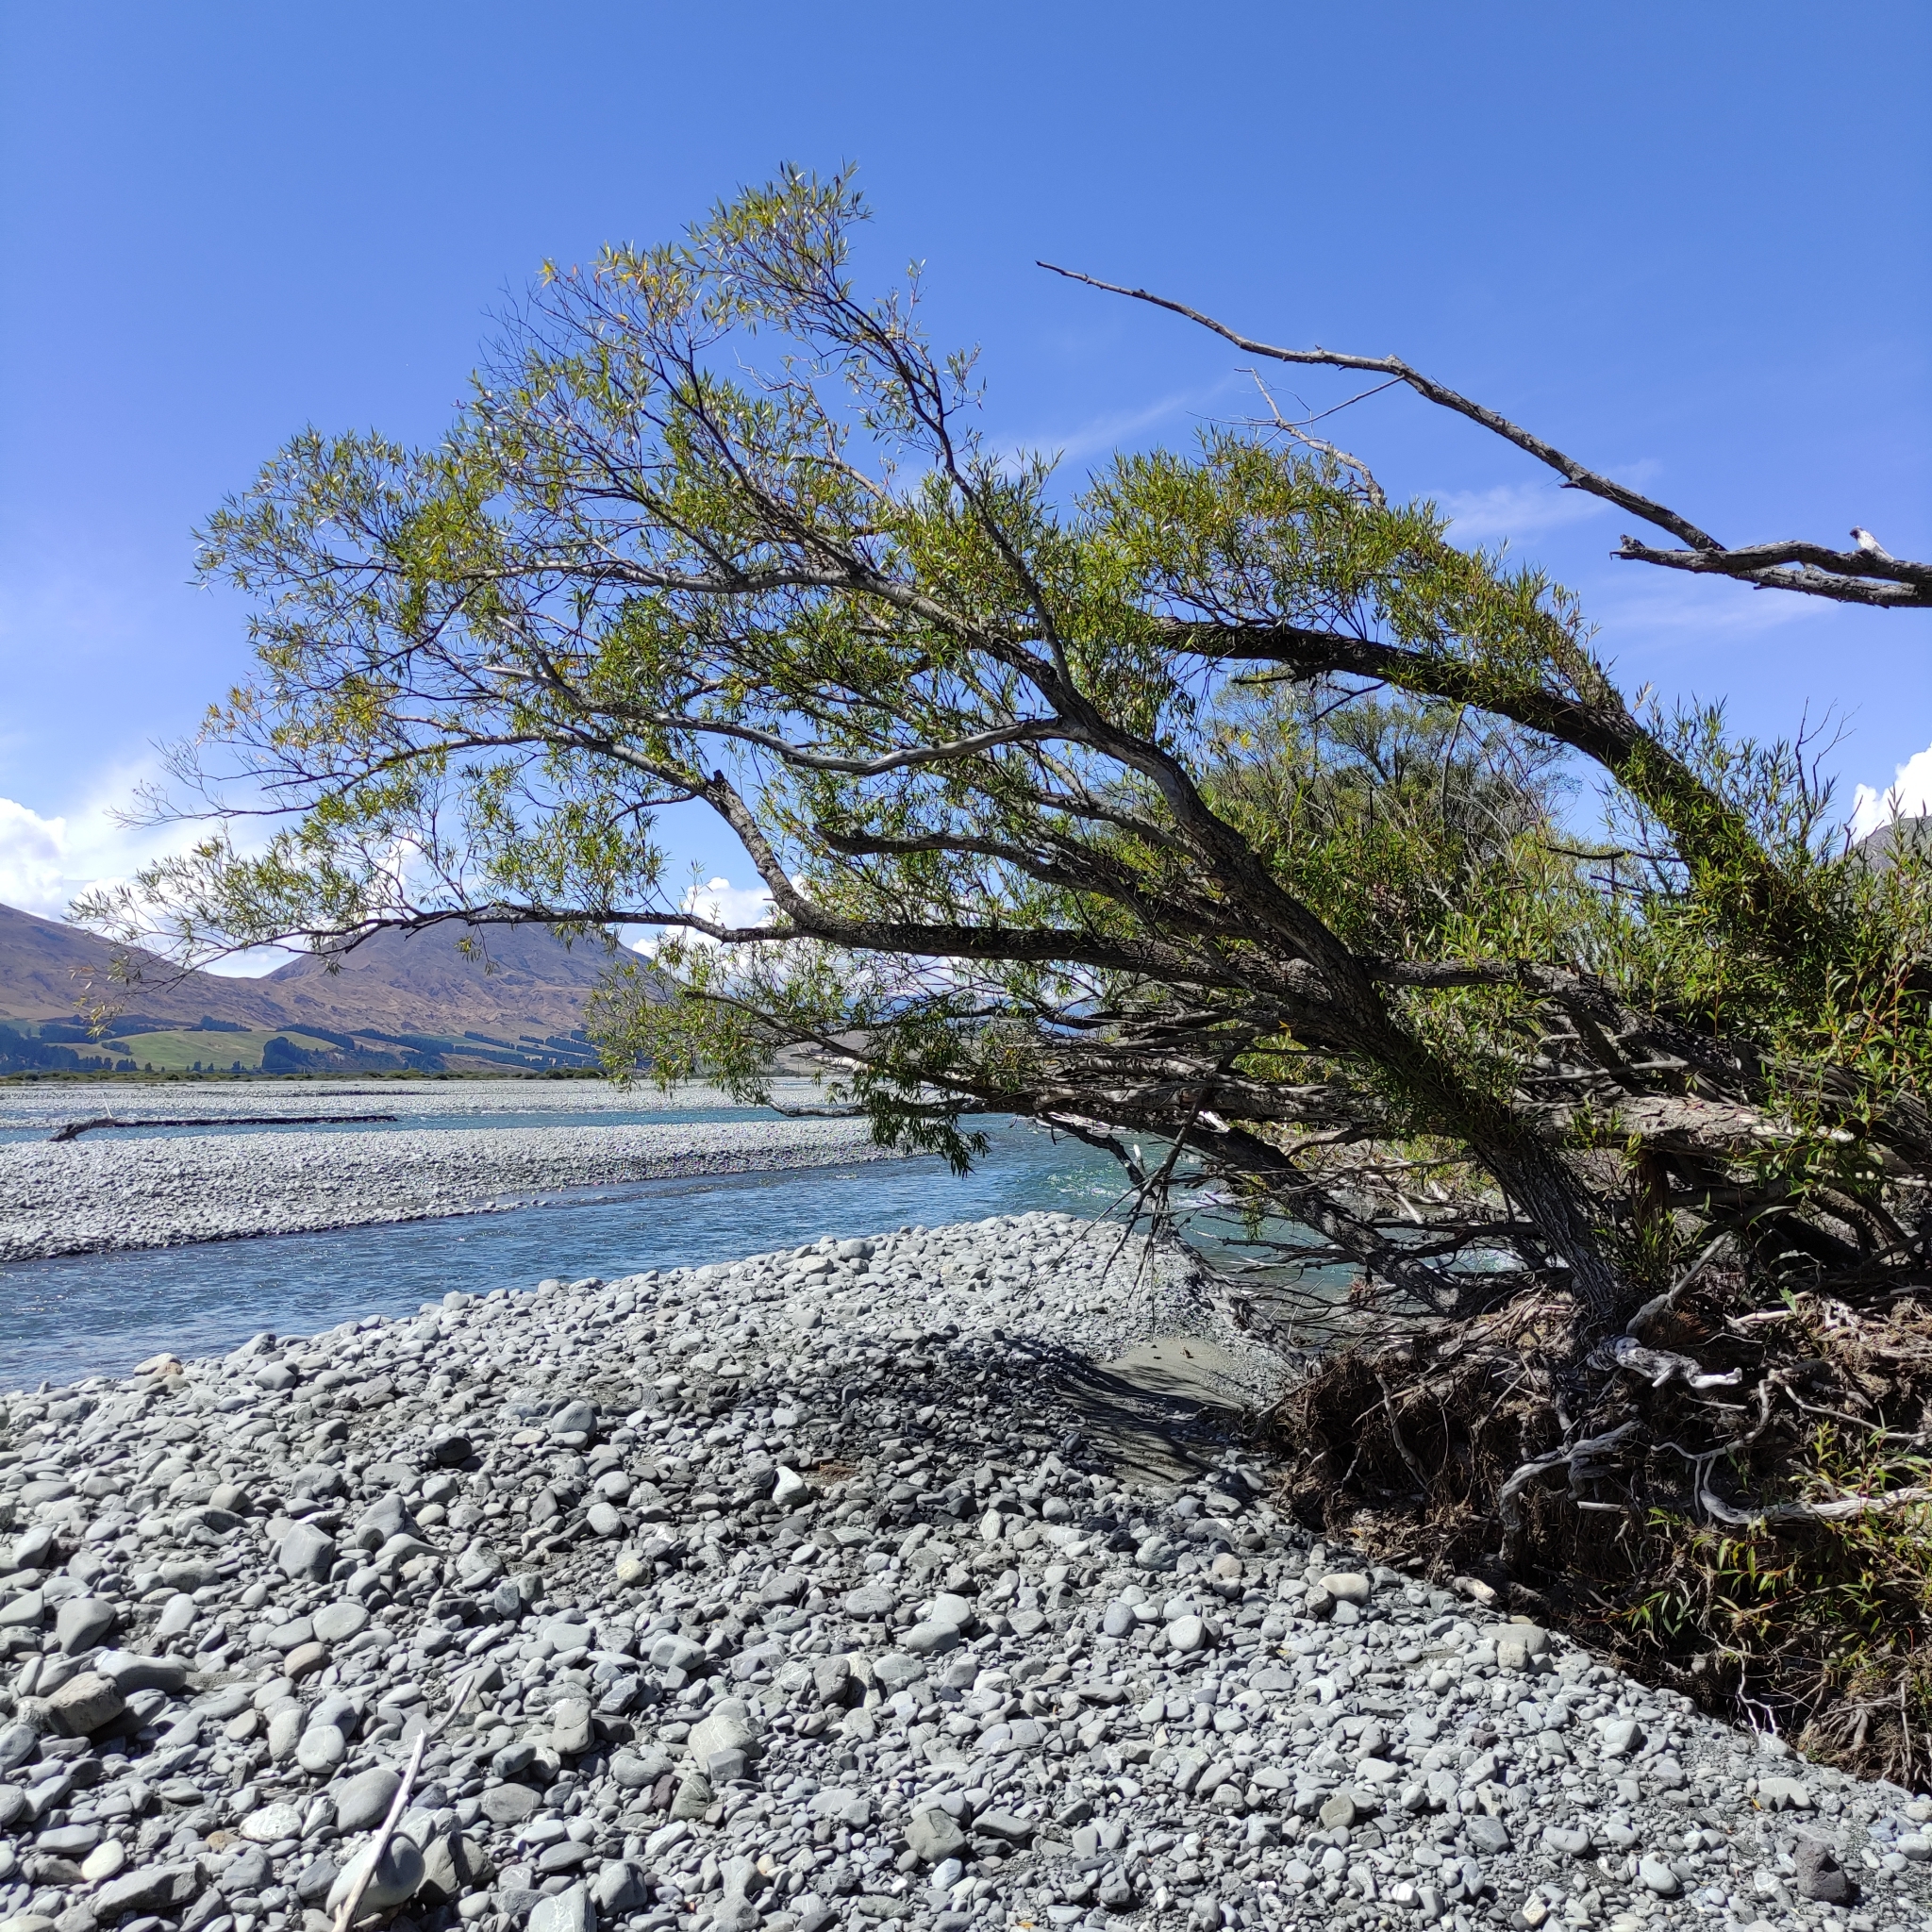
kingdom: Plantae
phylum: Tracheophyta
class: Magnoliopsida
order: Malpighiales
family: Salicaceae
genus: Salix
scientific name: Salix fragilis
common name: Crack willow
